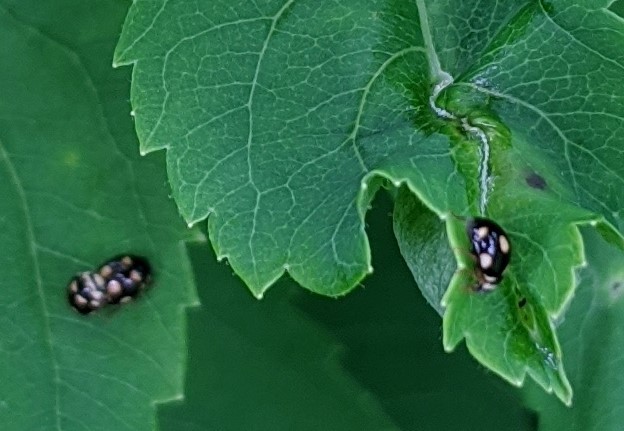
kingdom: Animalia
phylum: Arthropoda
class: Insecta
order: Coleoptera
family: Coccinellidae
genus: Brachiacantha
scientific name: Brachiacantha decempustulata
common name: Ten-spotted spurleg lady beetle
